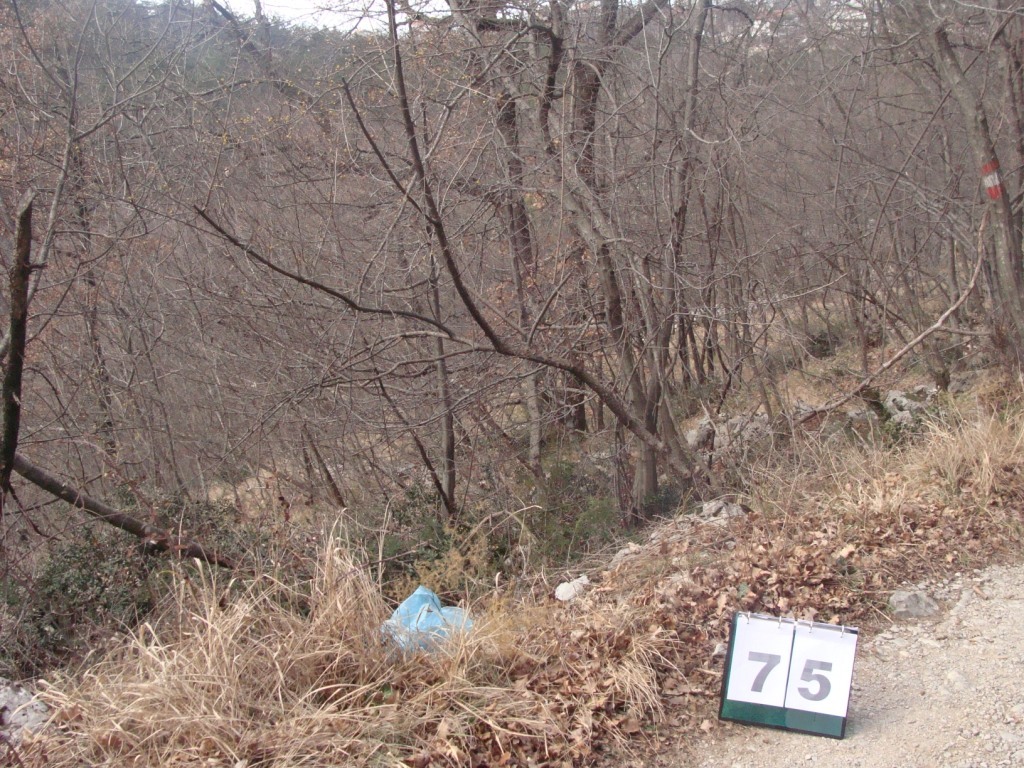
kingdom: Plantae
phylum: Tracheophyta
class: Magnoliopsida
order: Cornales
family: Cornaceae
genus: Cornus
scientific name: Cornus mas
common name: Cornelian-cherry
